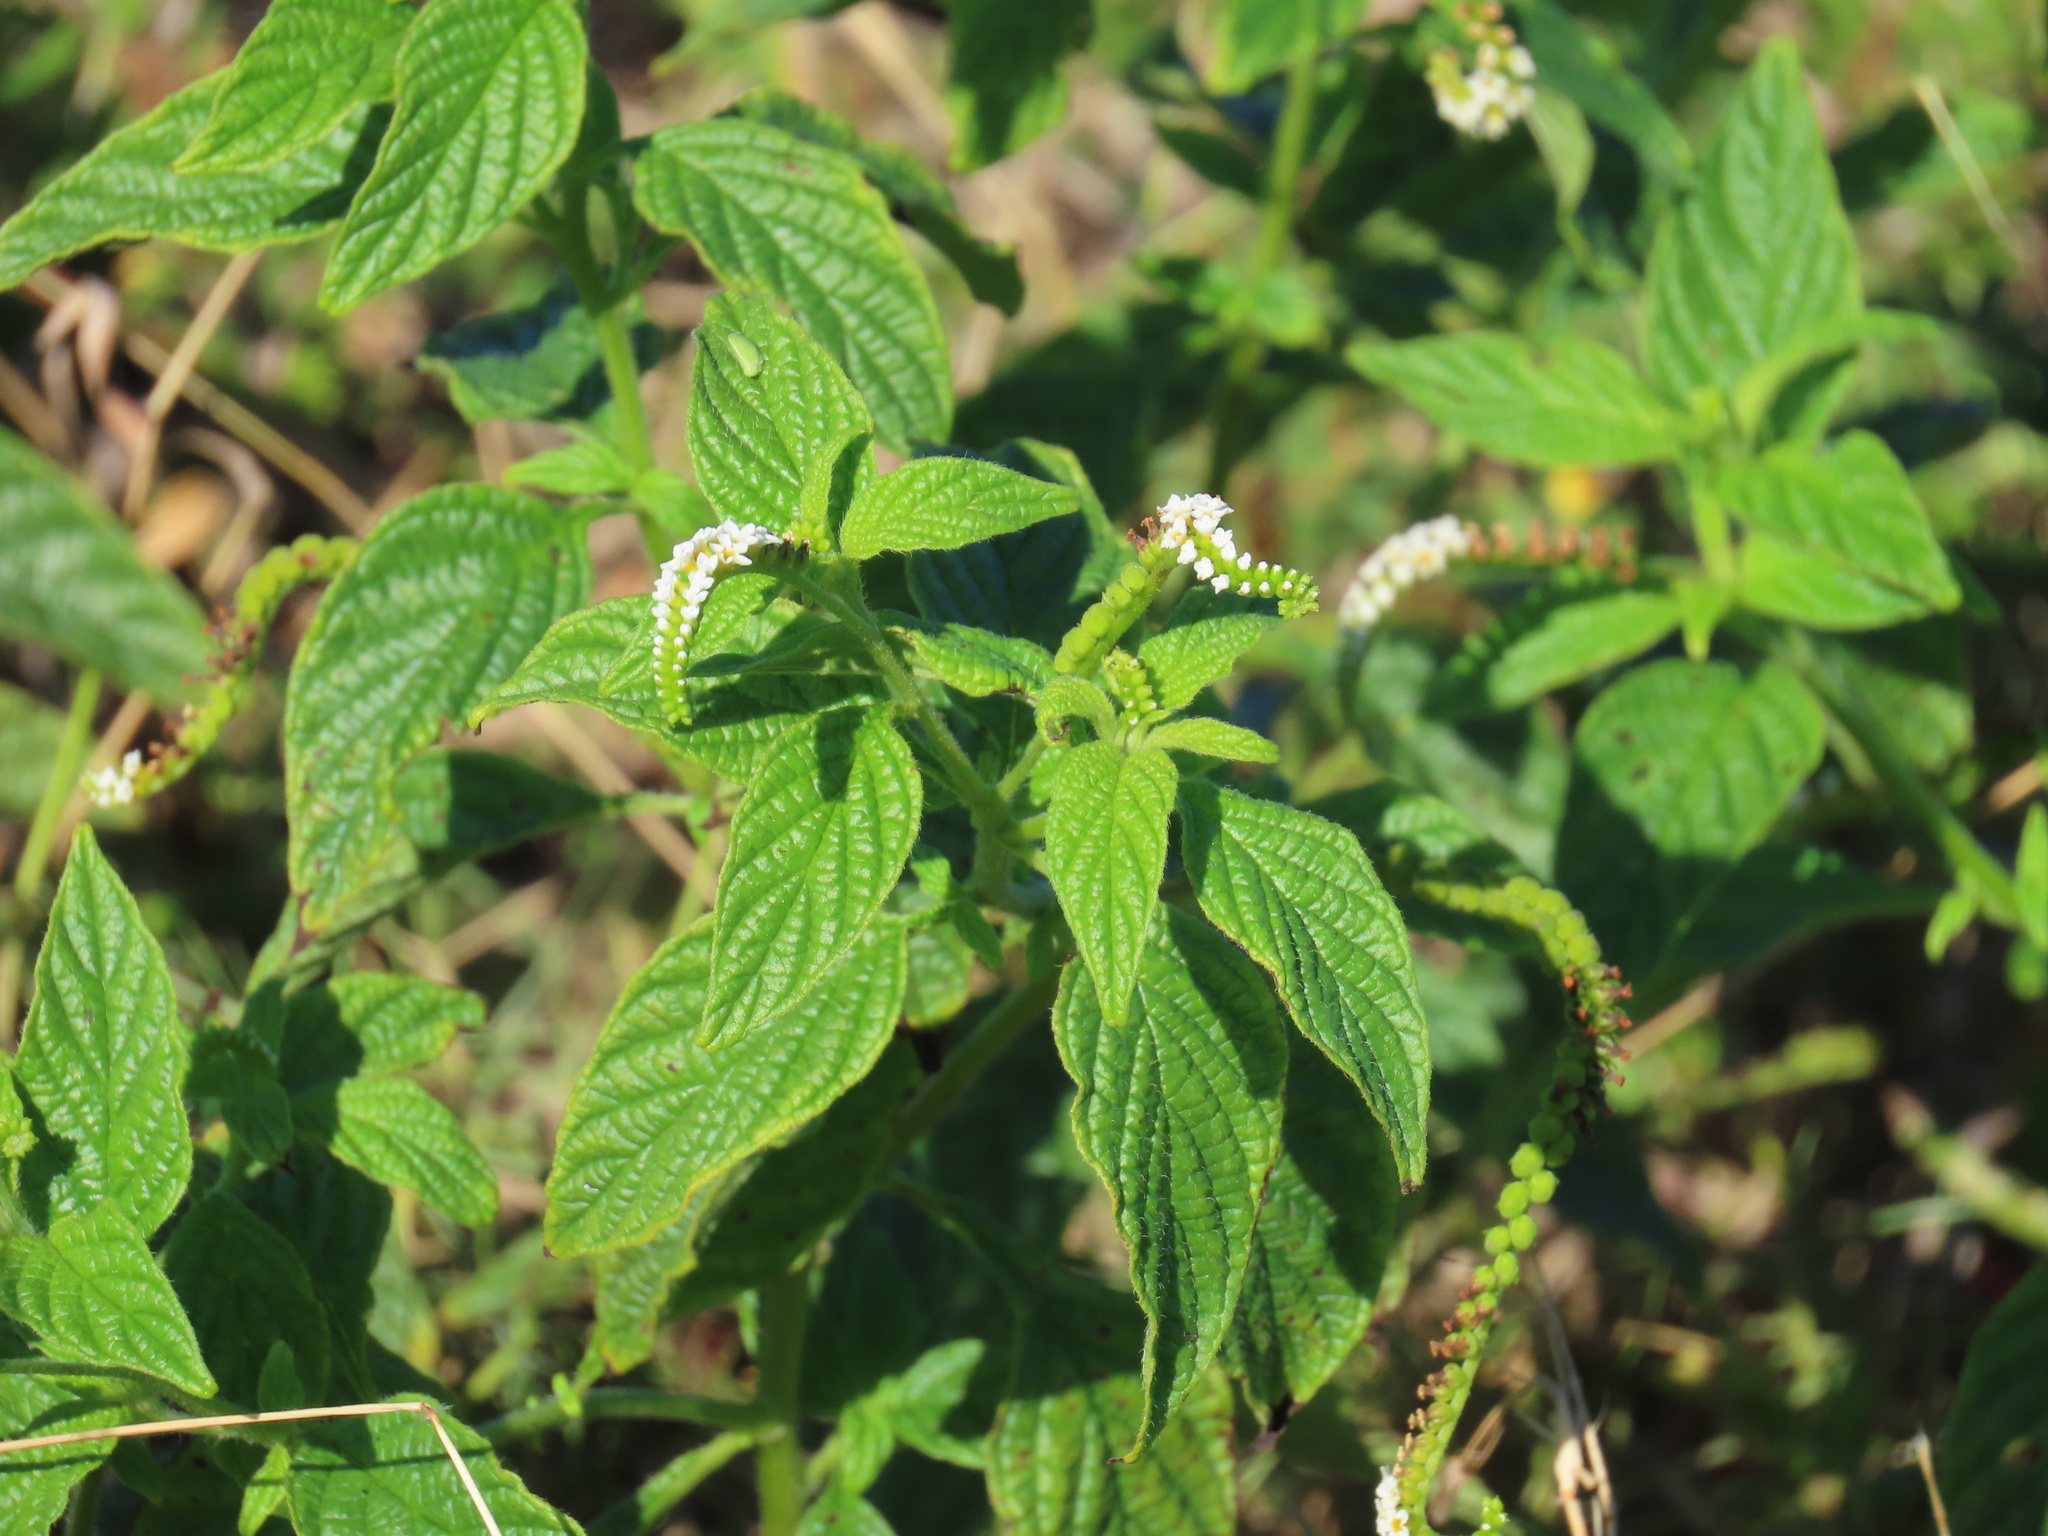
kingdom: Plantae
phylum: Tracheophyta
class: Magnoliopsida
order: Boraginales
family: Heliotropiaceae
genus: Heliotropium
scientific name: Heliotropium angiospermum
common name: Eye bright
